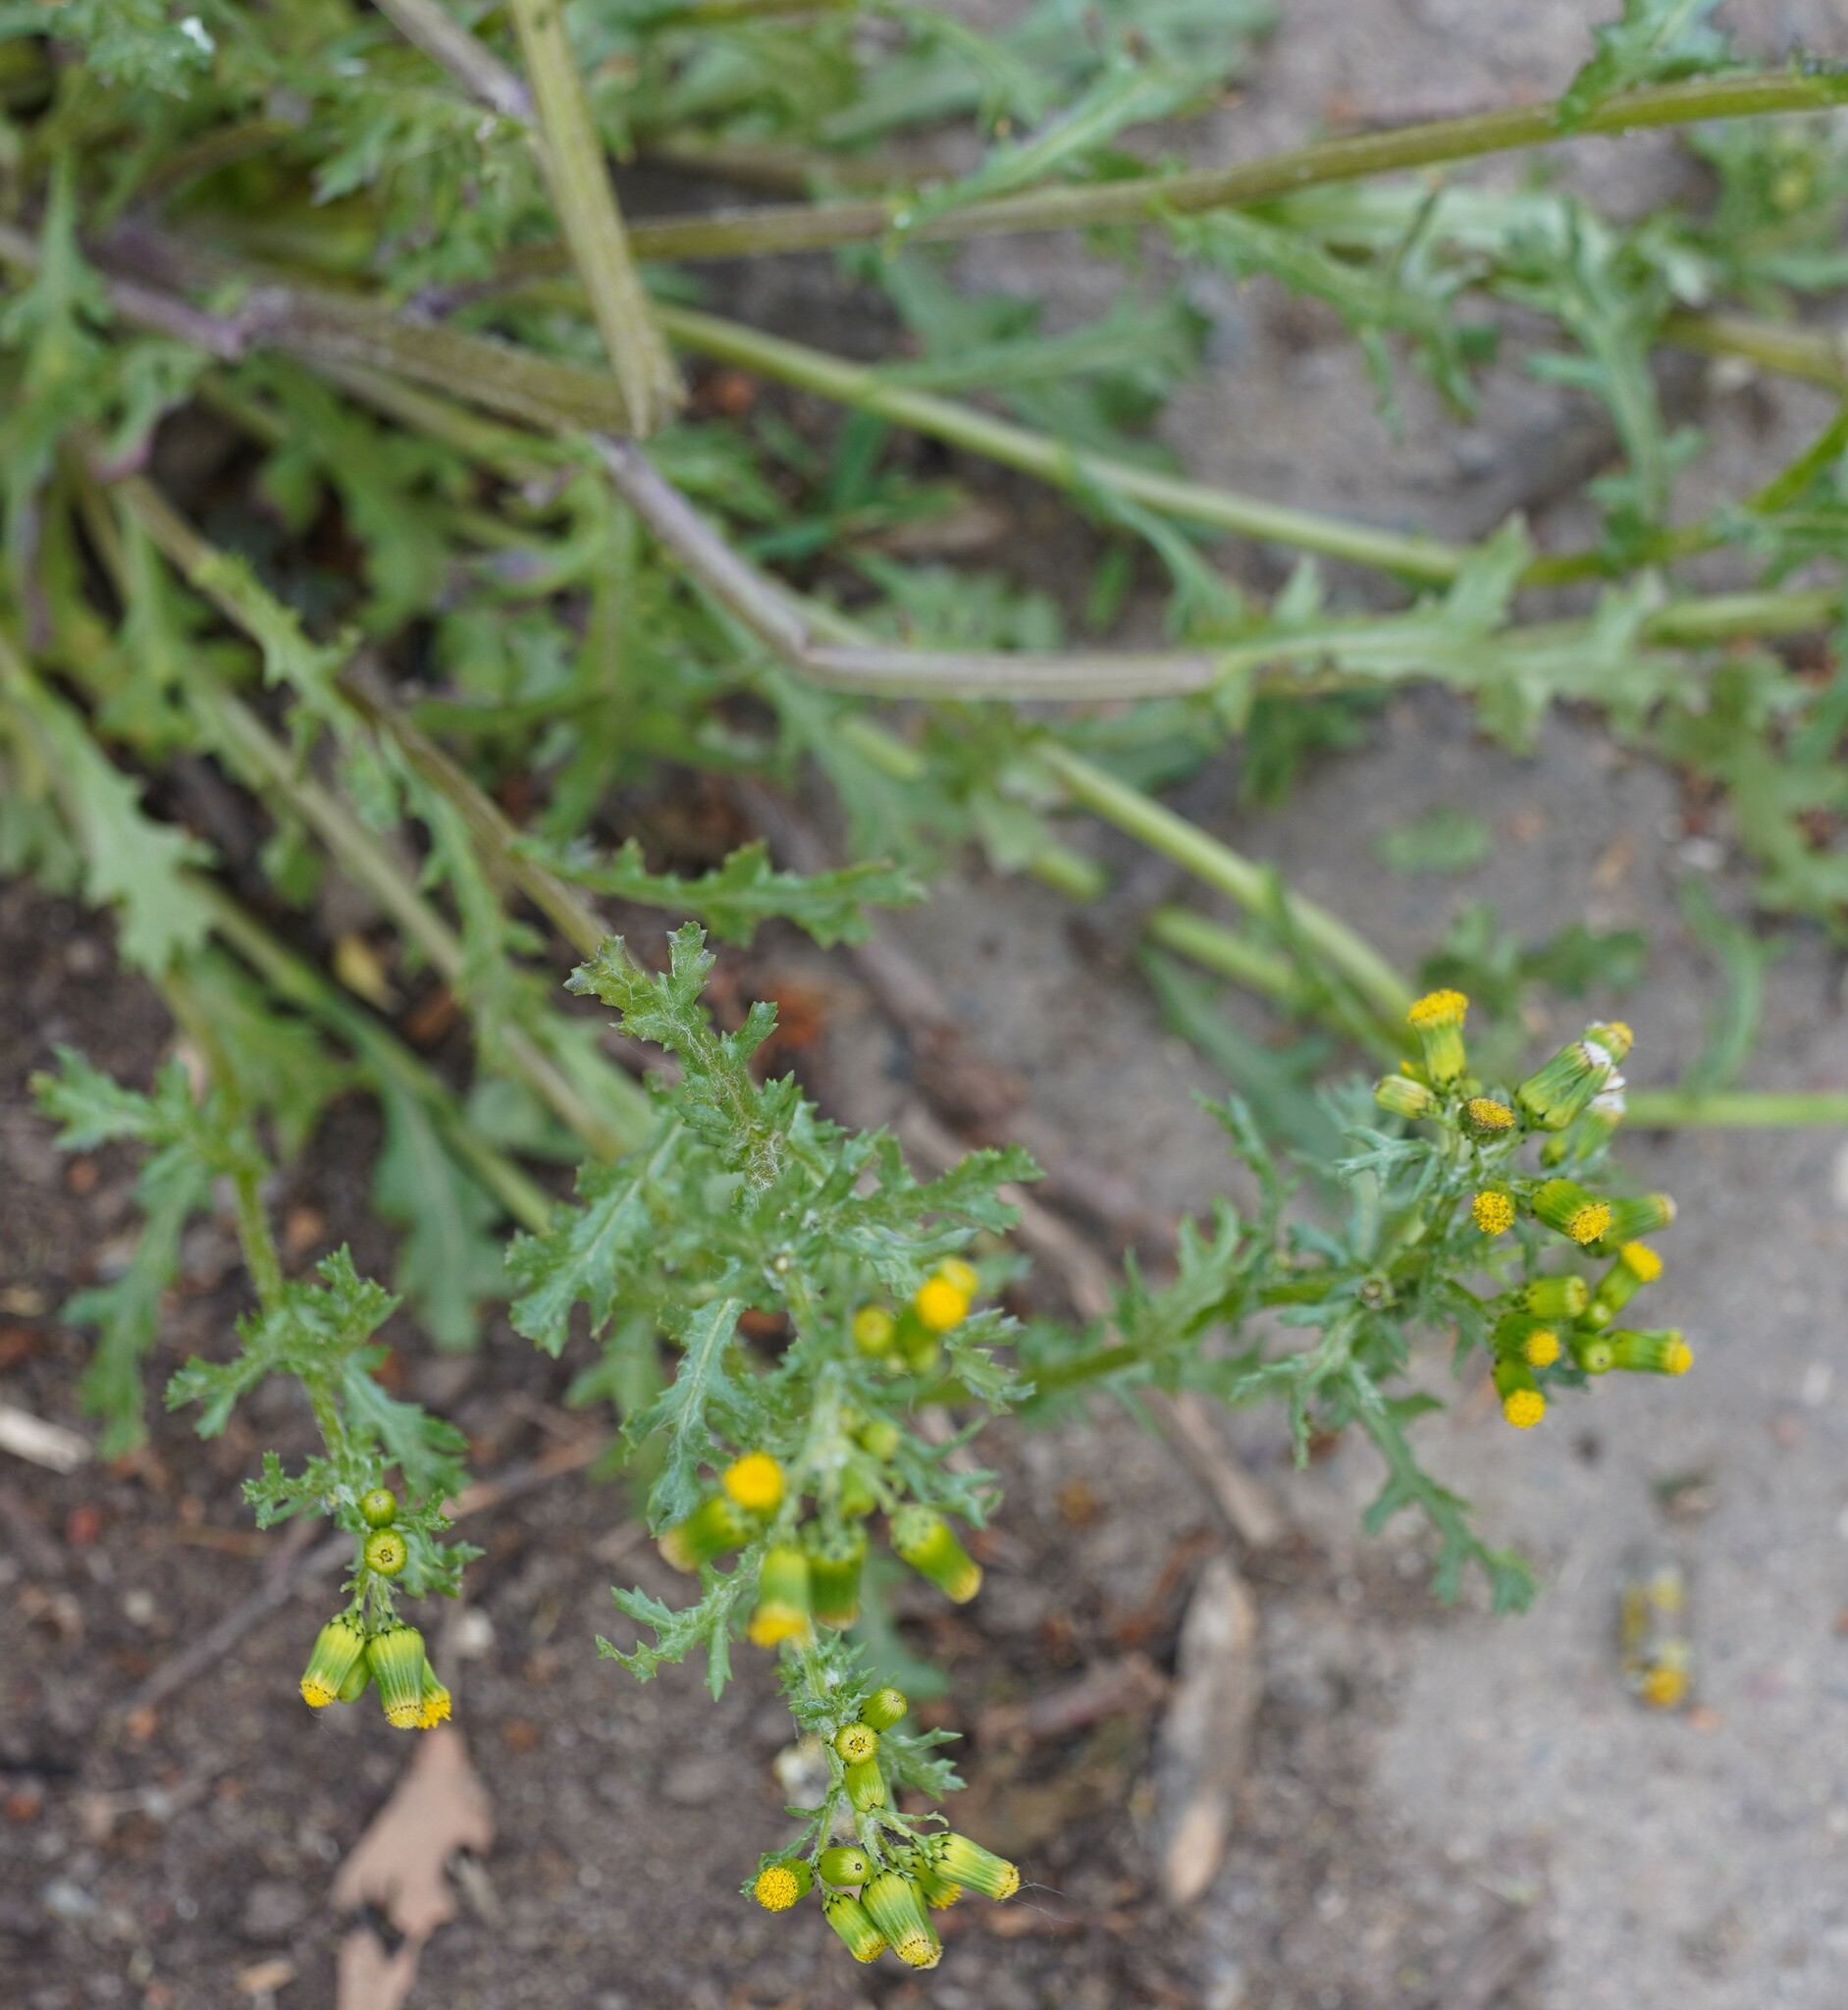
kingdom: Plantae
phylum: Tracheophyta
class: Magnoliopsida
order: Asterales
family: Asteraceae
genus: Senecio
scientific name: Senecio vulgaris
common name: Old-man-in-the-spring
